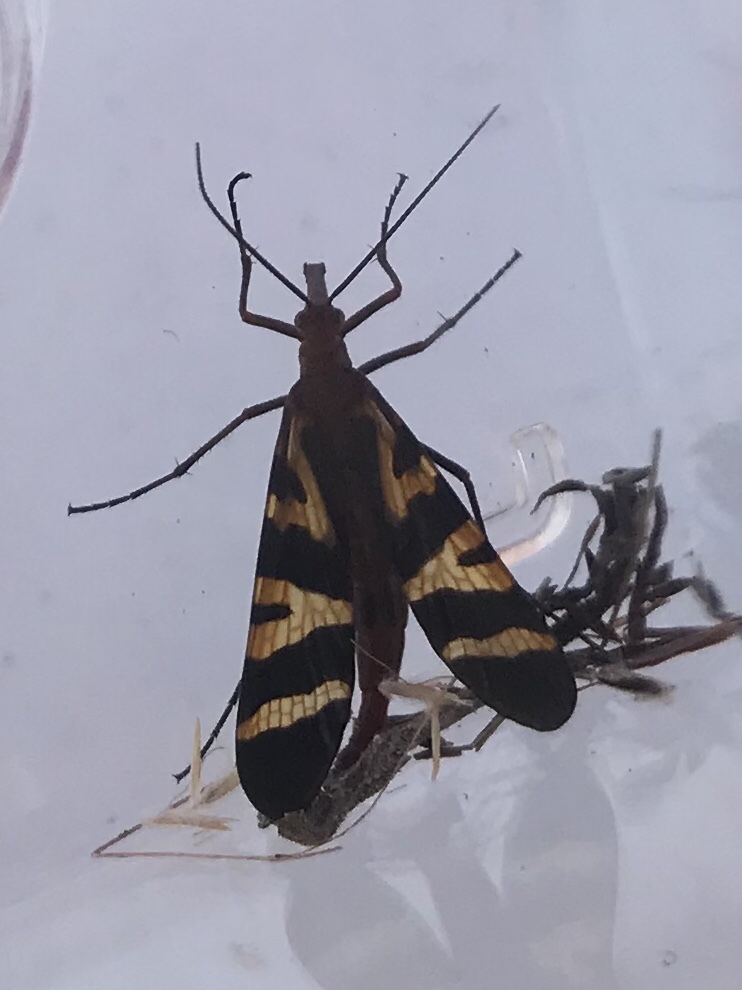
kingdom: Animalia
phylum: Arthropoda
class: Insecta
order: Mecoptera
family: Panorpidae
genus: Panorpa
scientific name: Panorpa nuptialis
